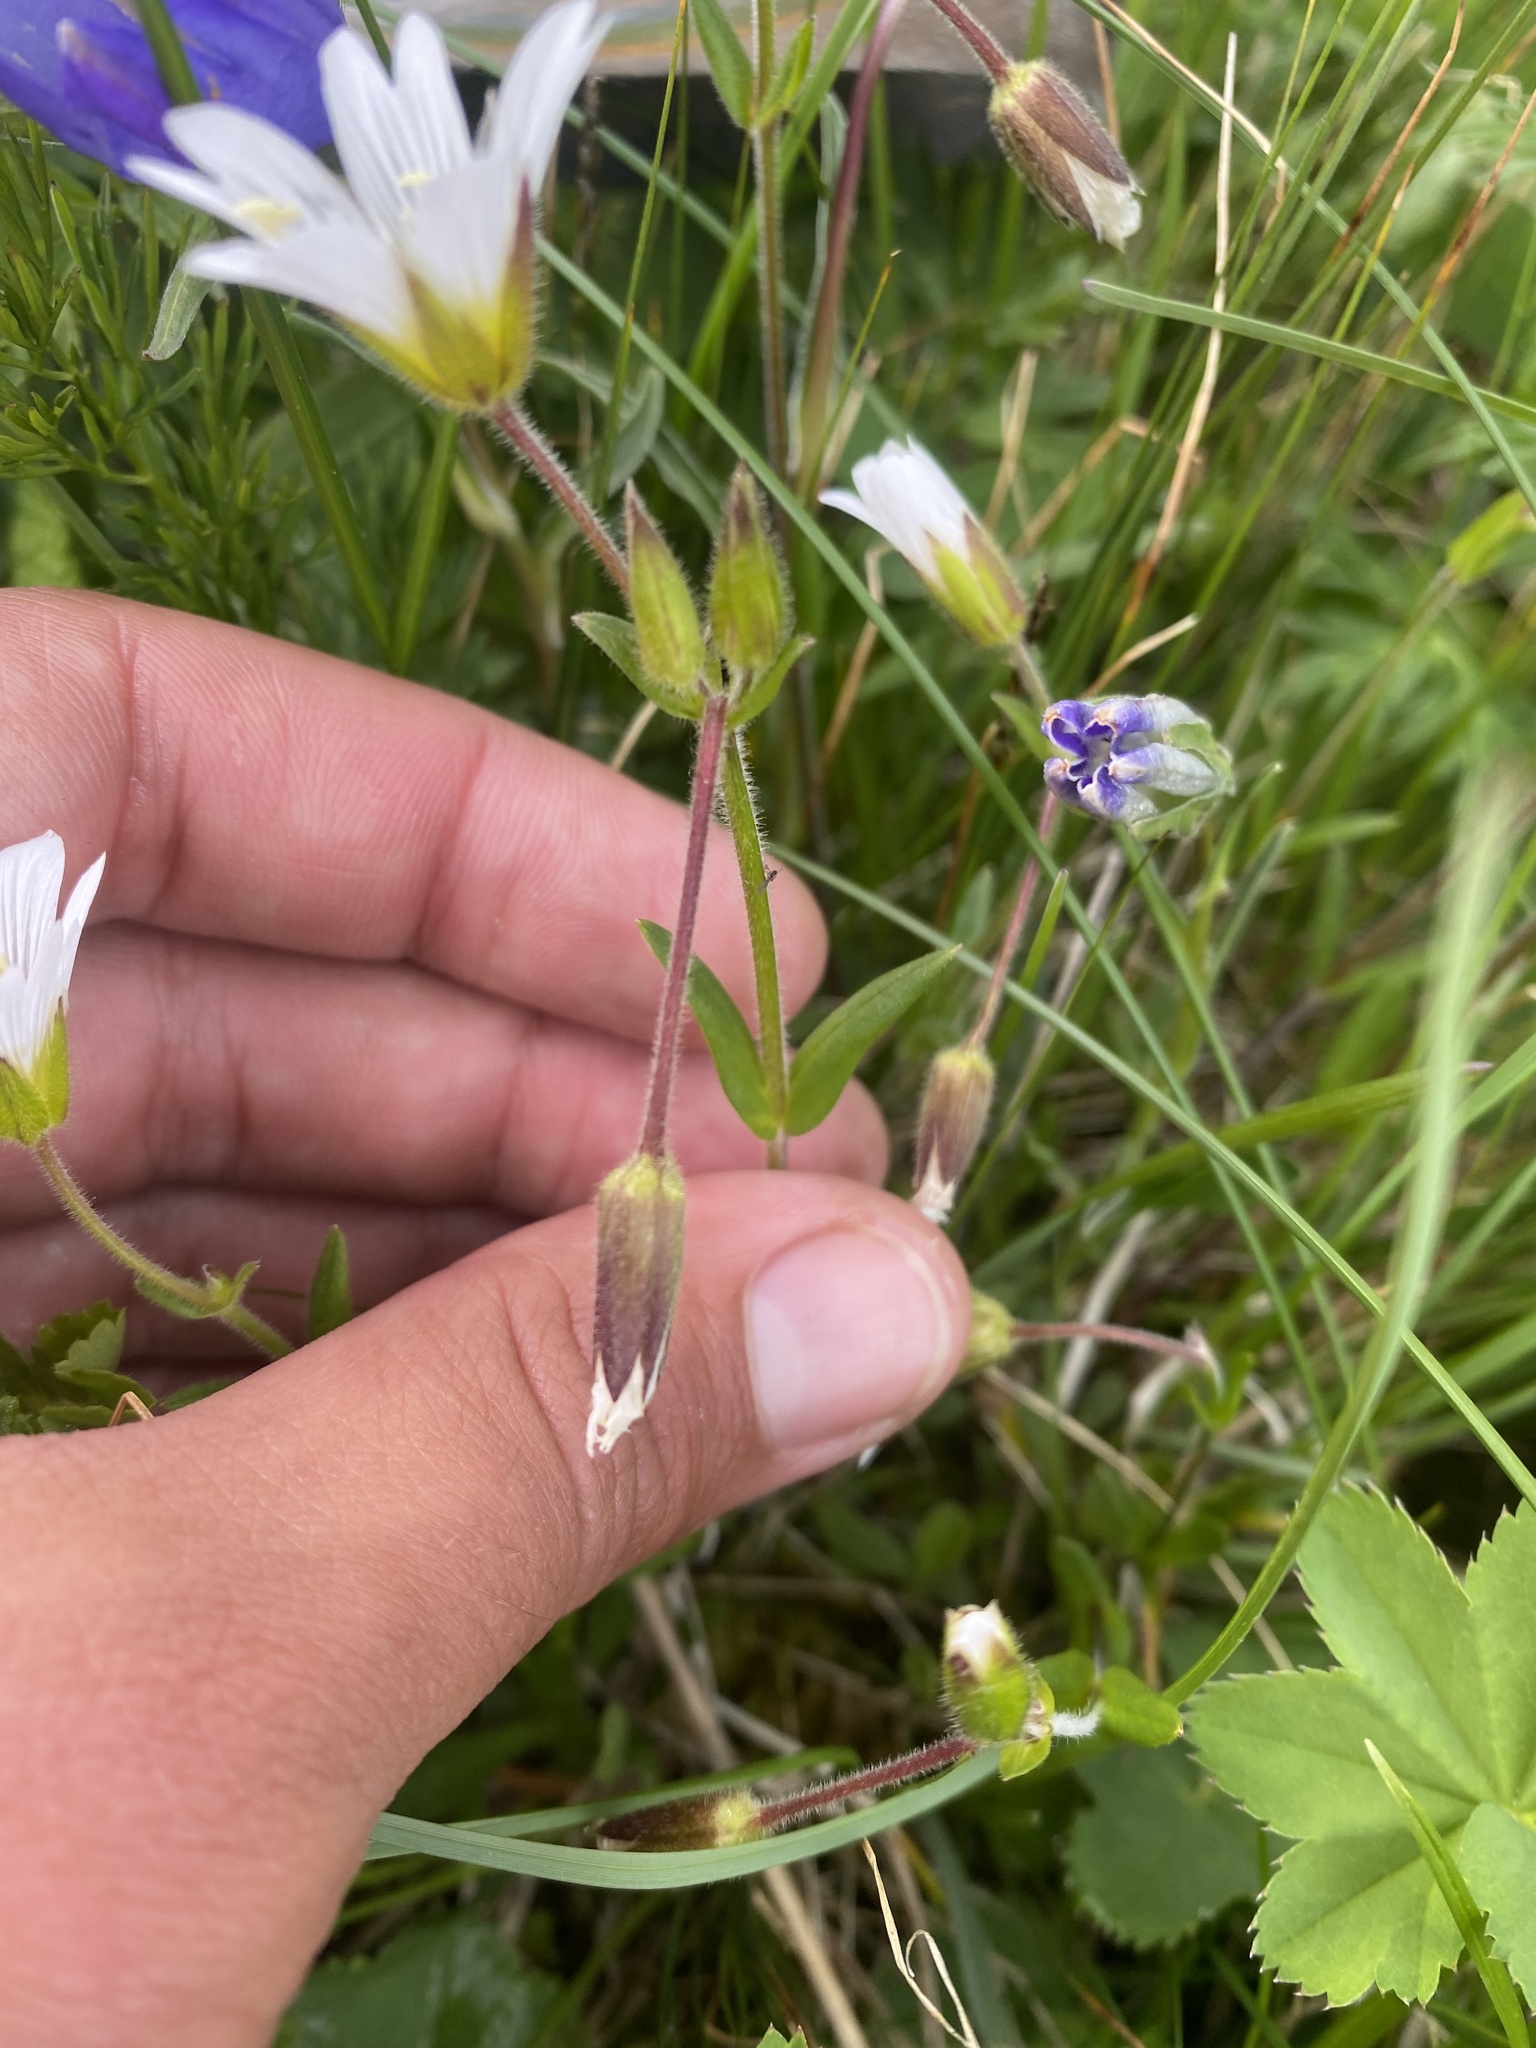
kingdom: Plantae
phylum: Tracheophyta
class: Magnoliopsida
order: Caryophyllales
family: Caryophyllaceae
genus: Dichodon
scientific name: Dichodon cerastoides
